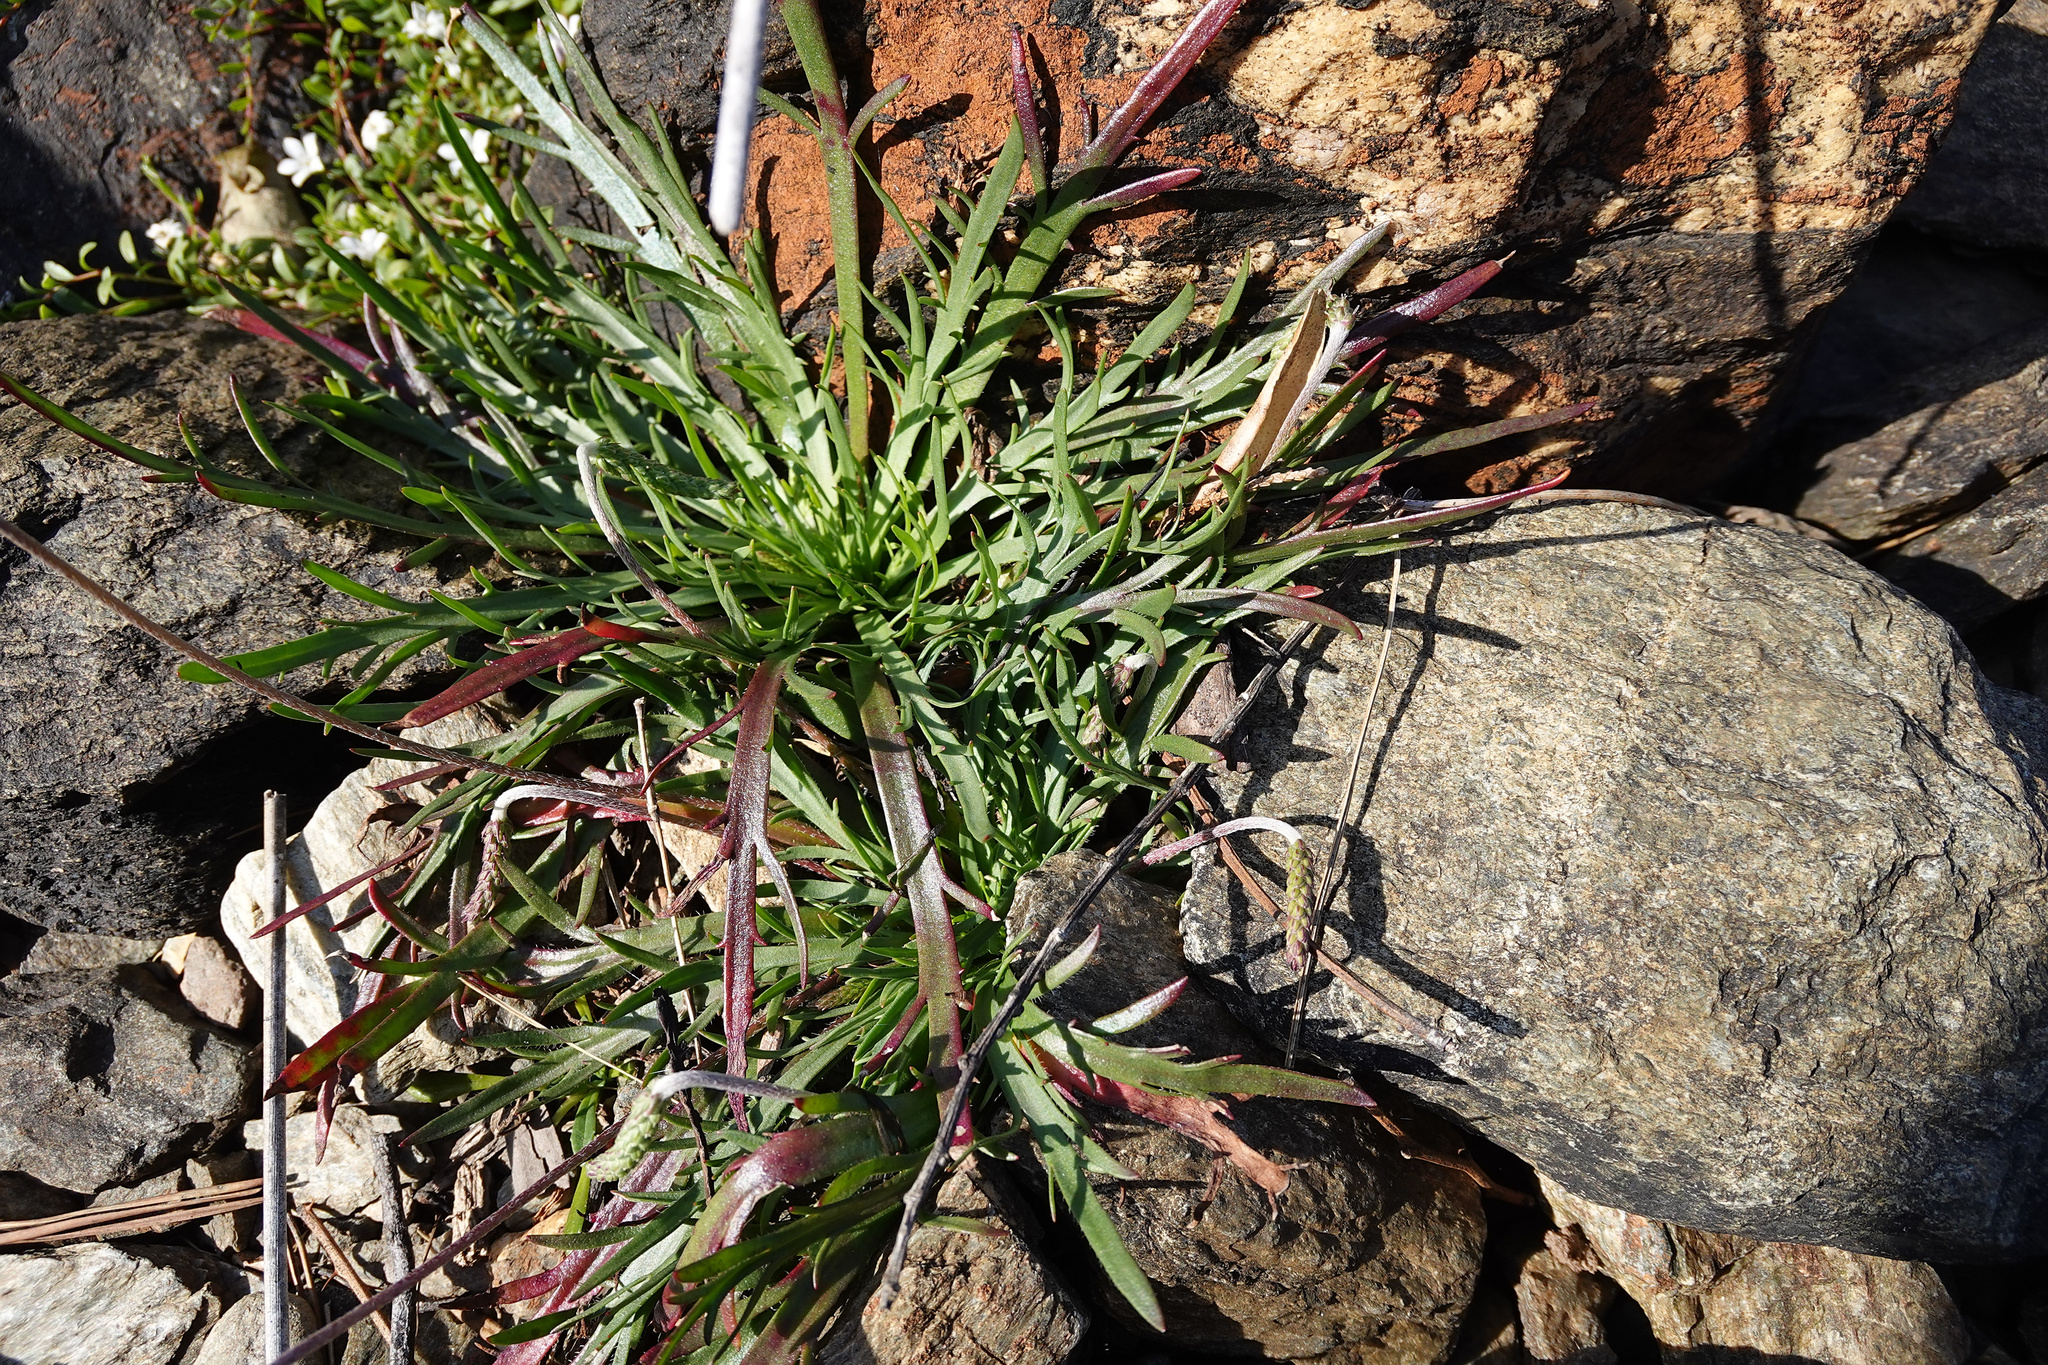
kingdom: Plantae
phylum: Tracheophyta
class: Magnoliopsida
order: Lamiales
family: Plantaginaceae
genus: Plantago
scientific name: Plantago coronopus
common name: Buck's-horn plantain
